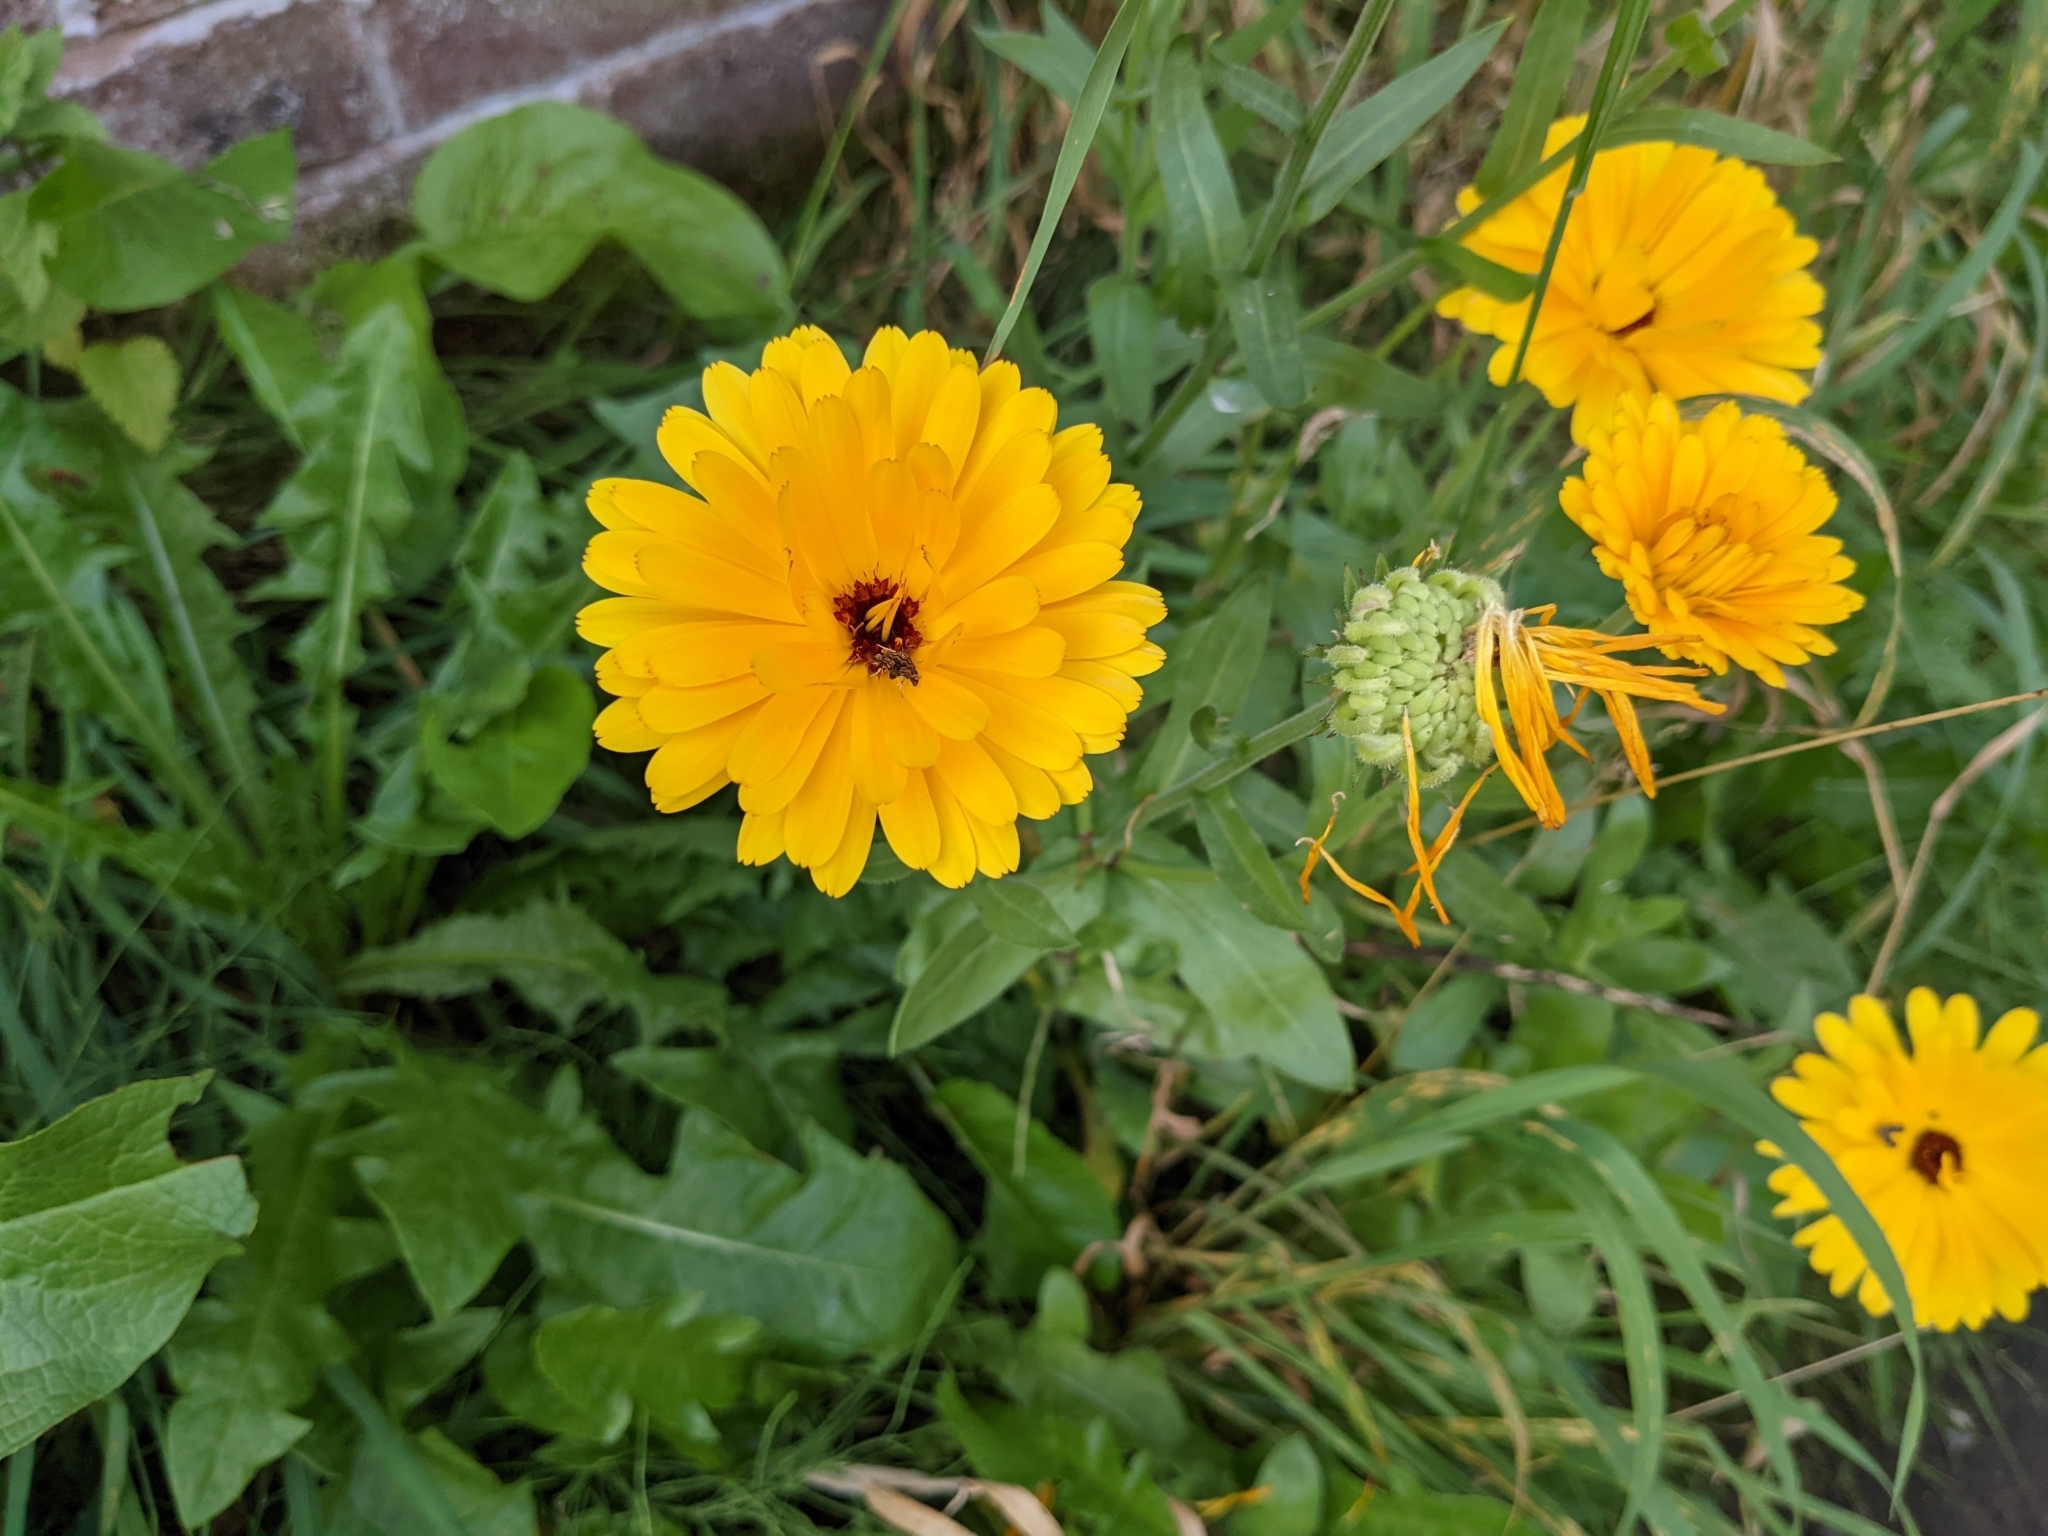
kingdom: Plantae
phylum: Tracheophyta
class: Magnoliopsida
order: Asterales
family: Asteraceae
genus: Calendula
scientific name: Calendula officinalis
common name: Pot marigold
